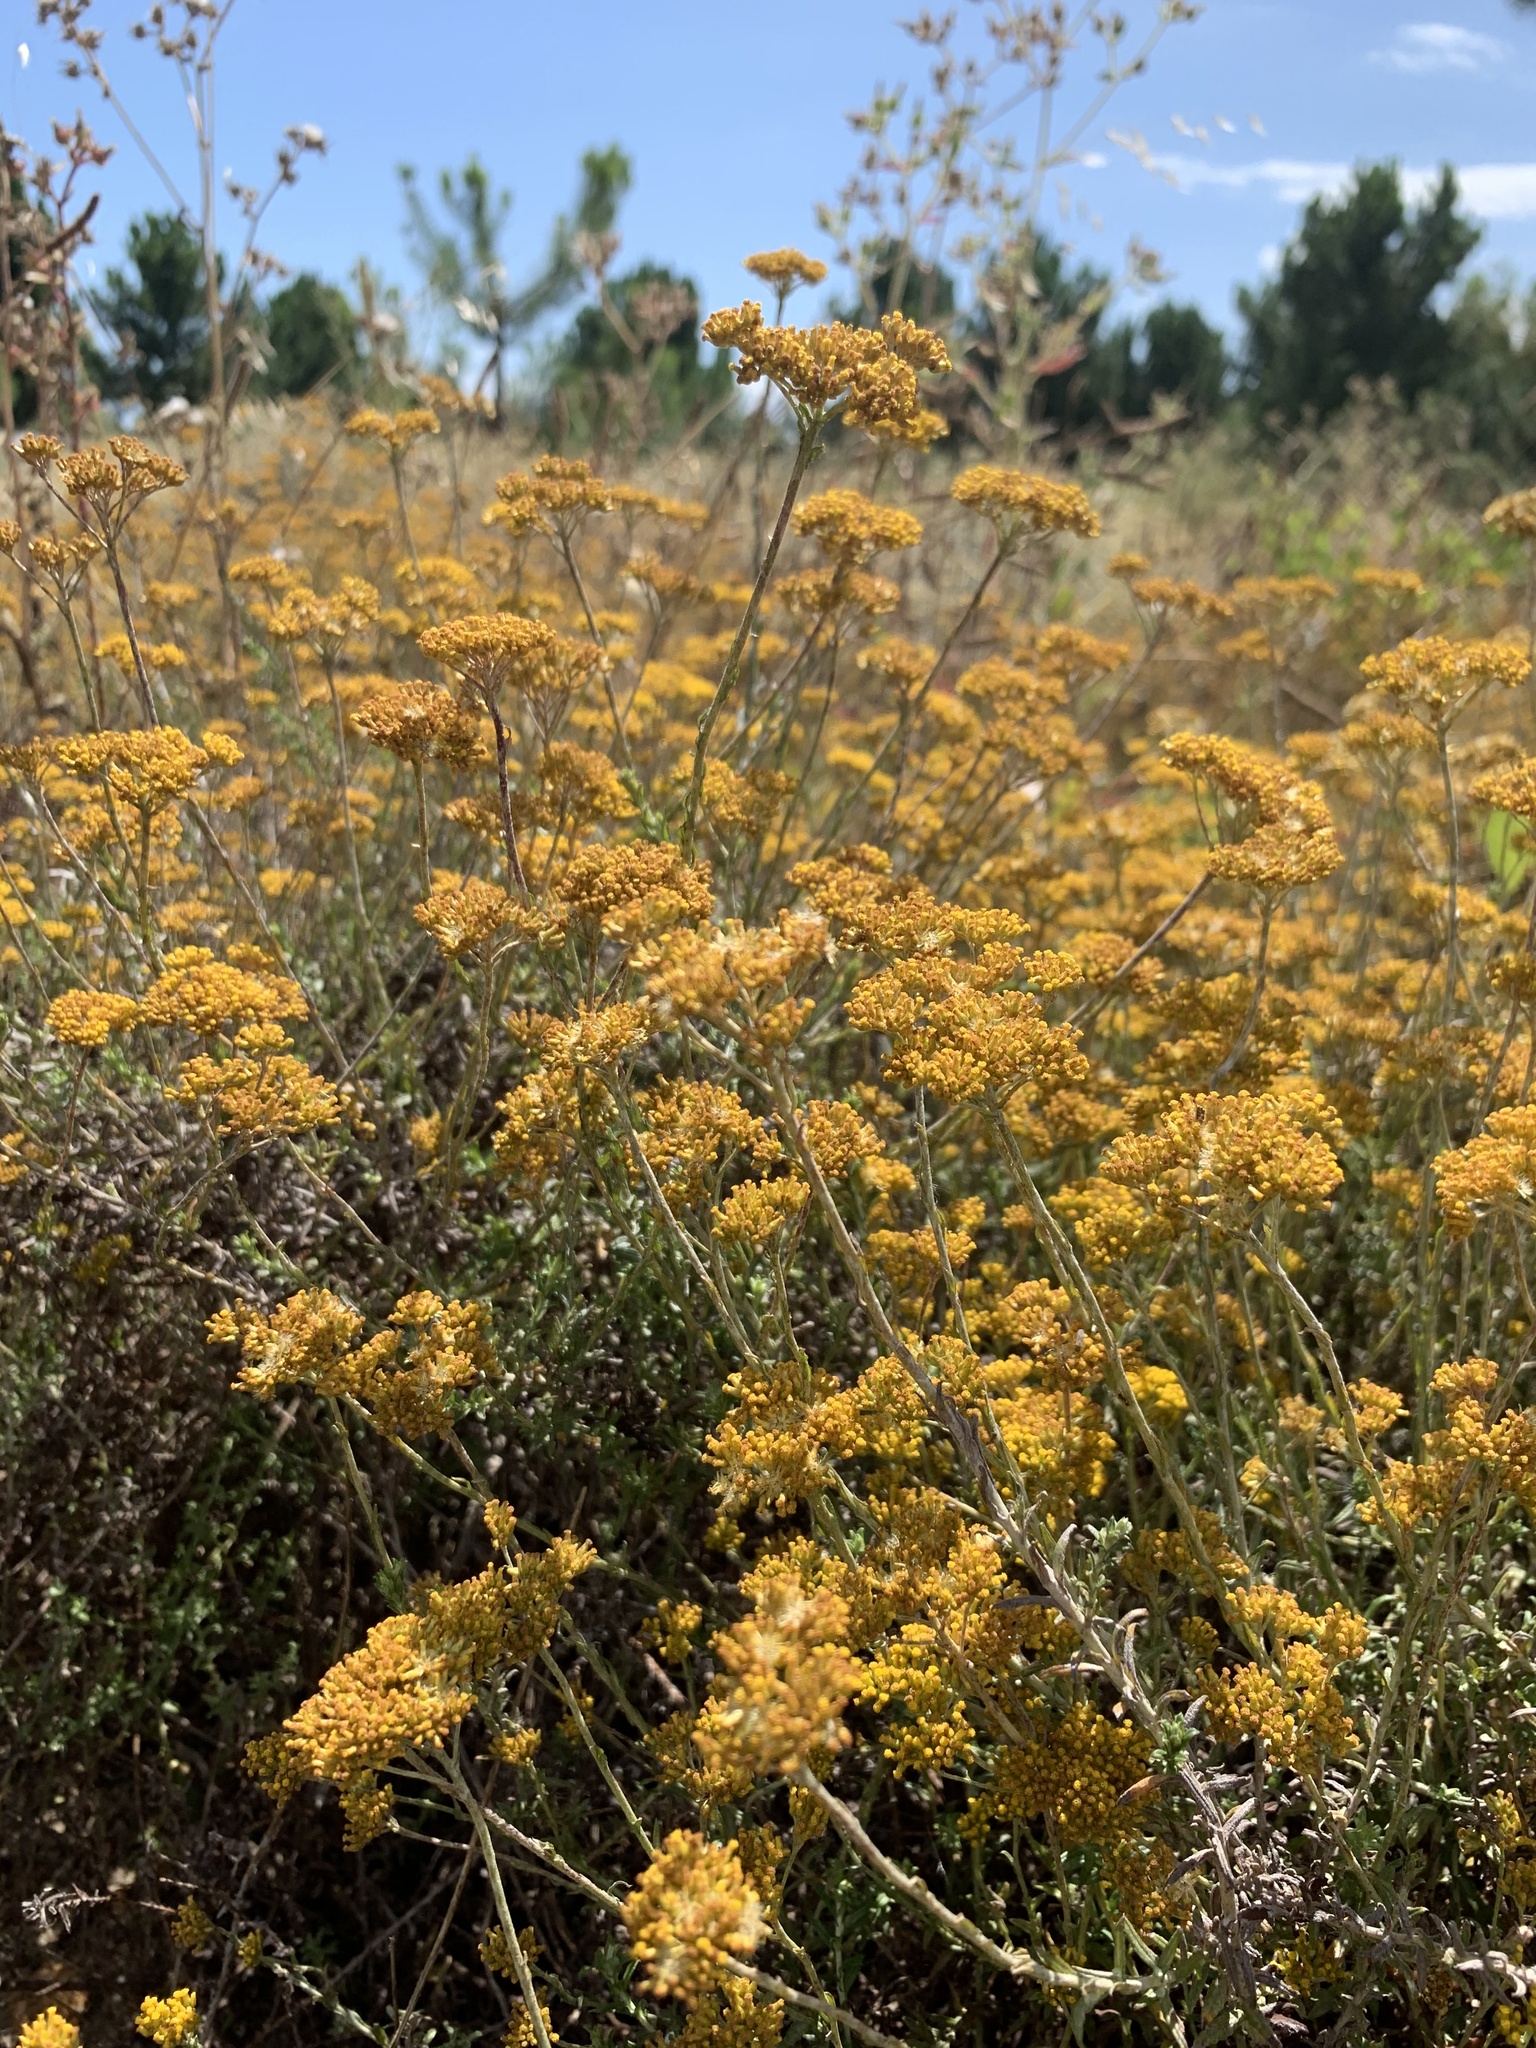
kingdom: Plantae
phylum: Tracheophyta
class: Magnoliopsida
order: Asterales
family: Asteraceae
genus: Helichrysum
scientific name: Helichrysum cymosum
